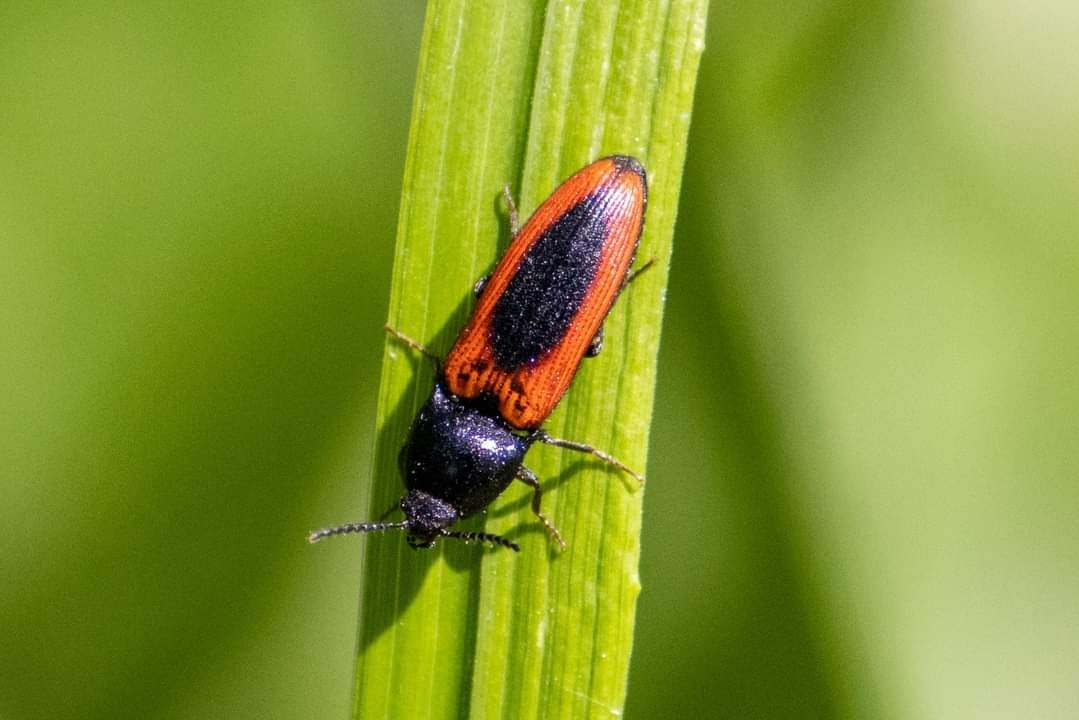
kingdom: Animalia
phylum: Arthropoda
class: Insecta
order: Coleoptera
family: Elateridae
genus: Ampedus
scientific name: Ampedus sanguinolentus
